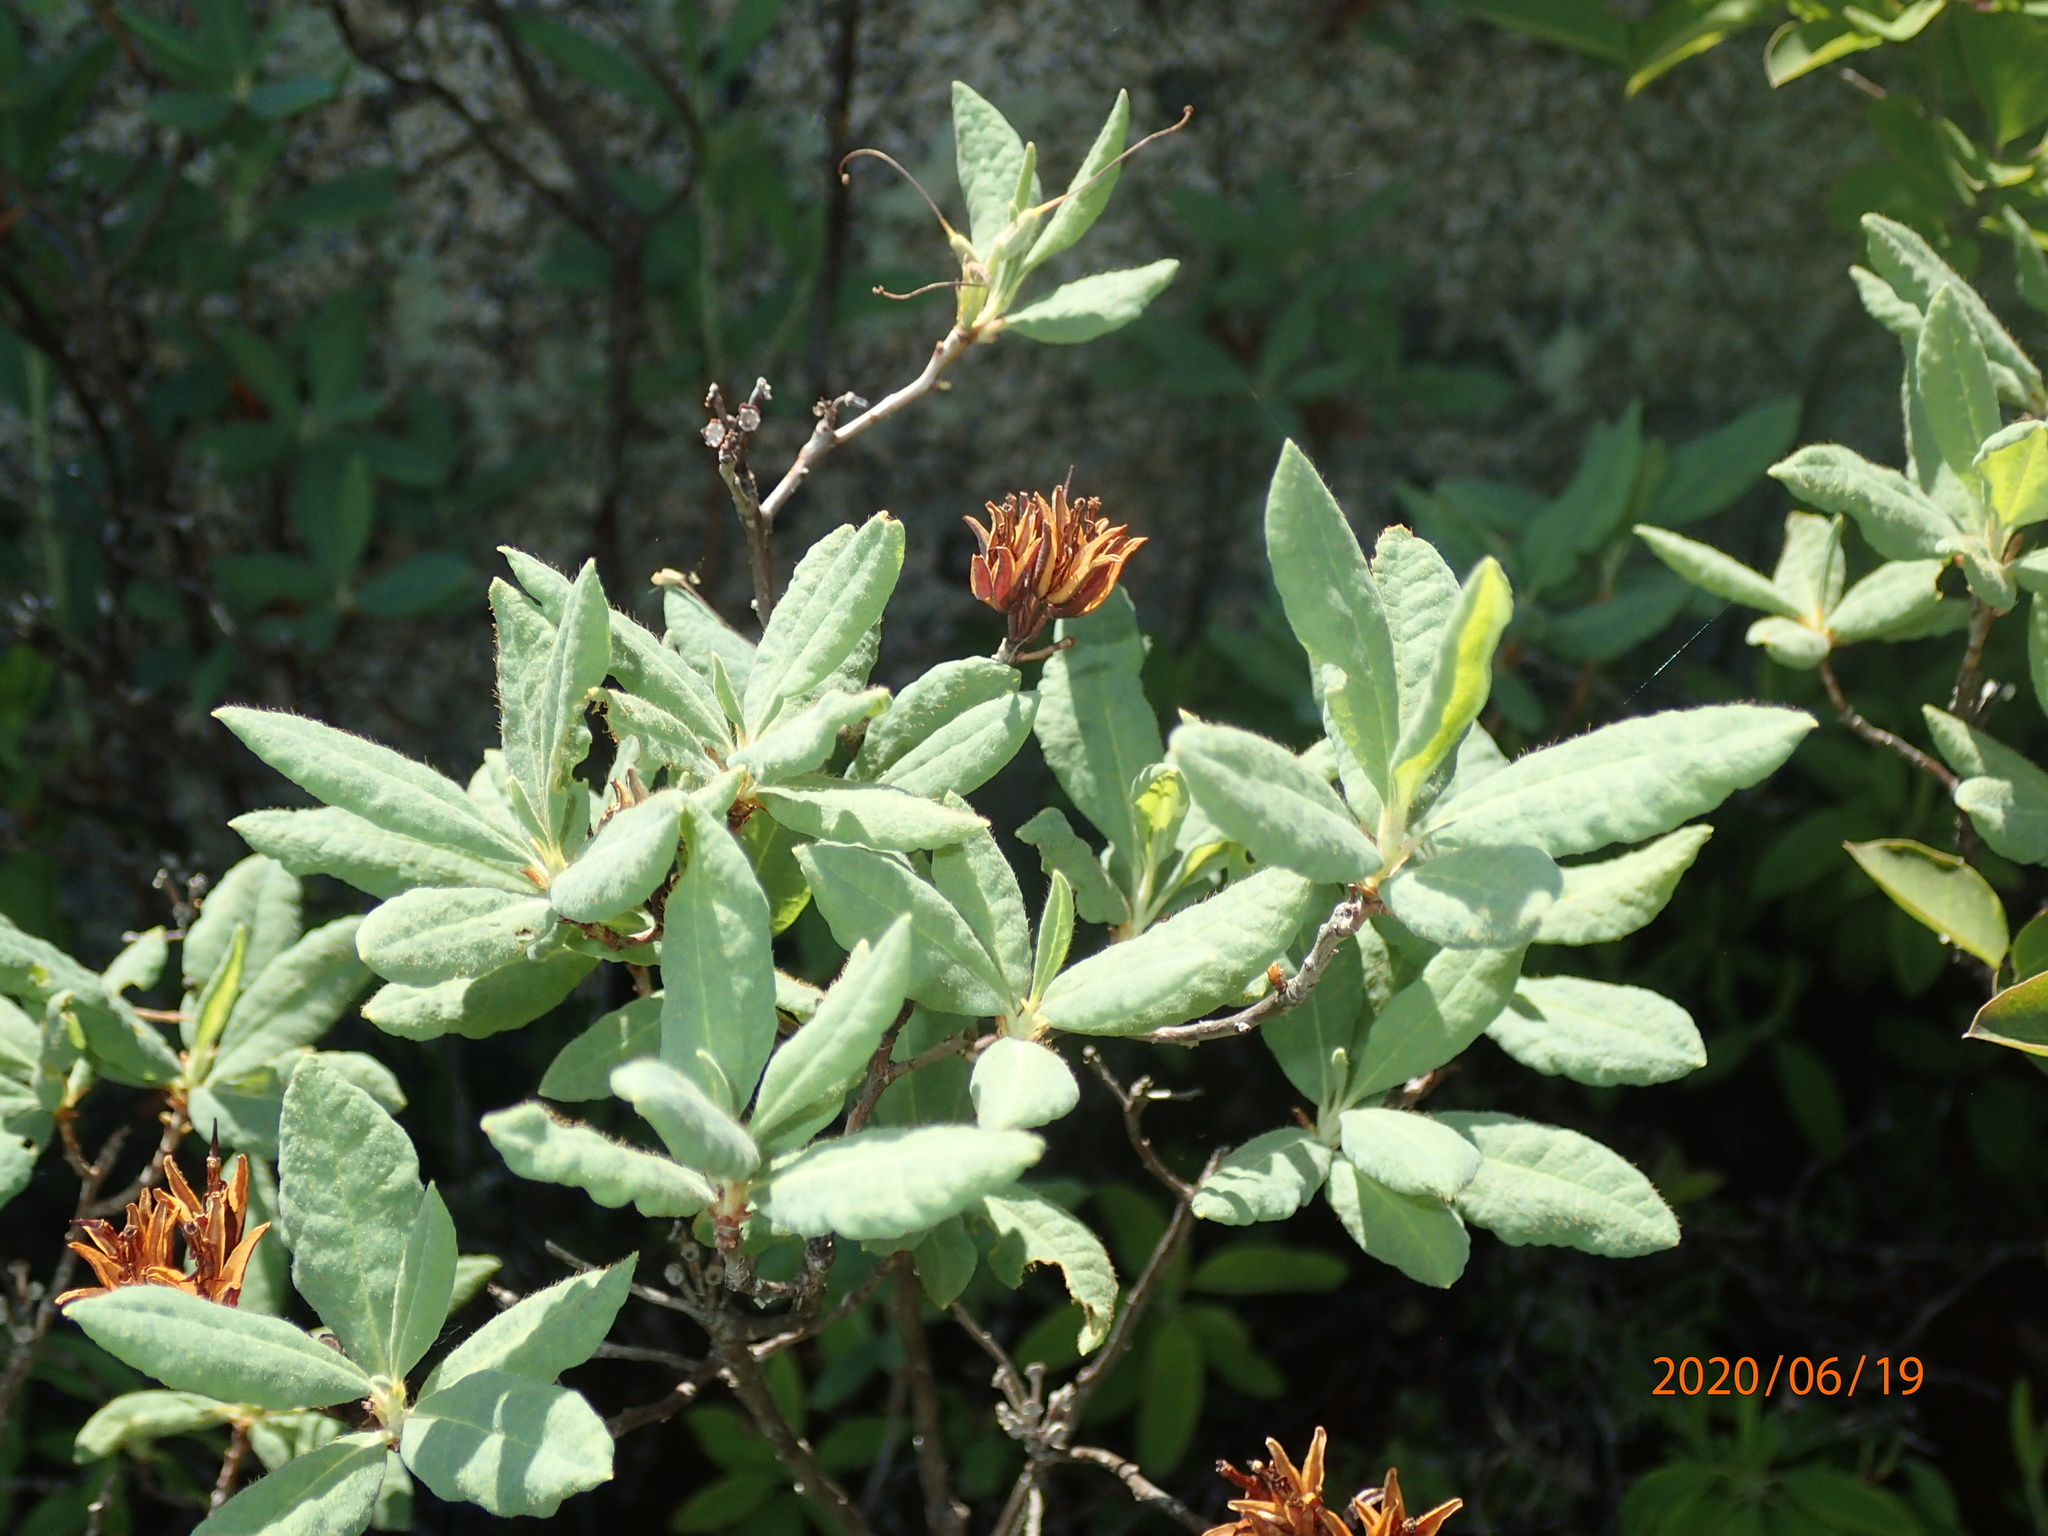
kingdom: Plantae
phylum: Tracheophyta
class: Magnoliopsida
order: Ericales
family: Ericaceae
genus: Rhododendron
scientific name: Rhododendron canadense
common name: Rhodora
